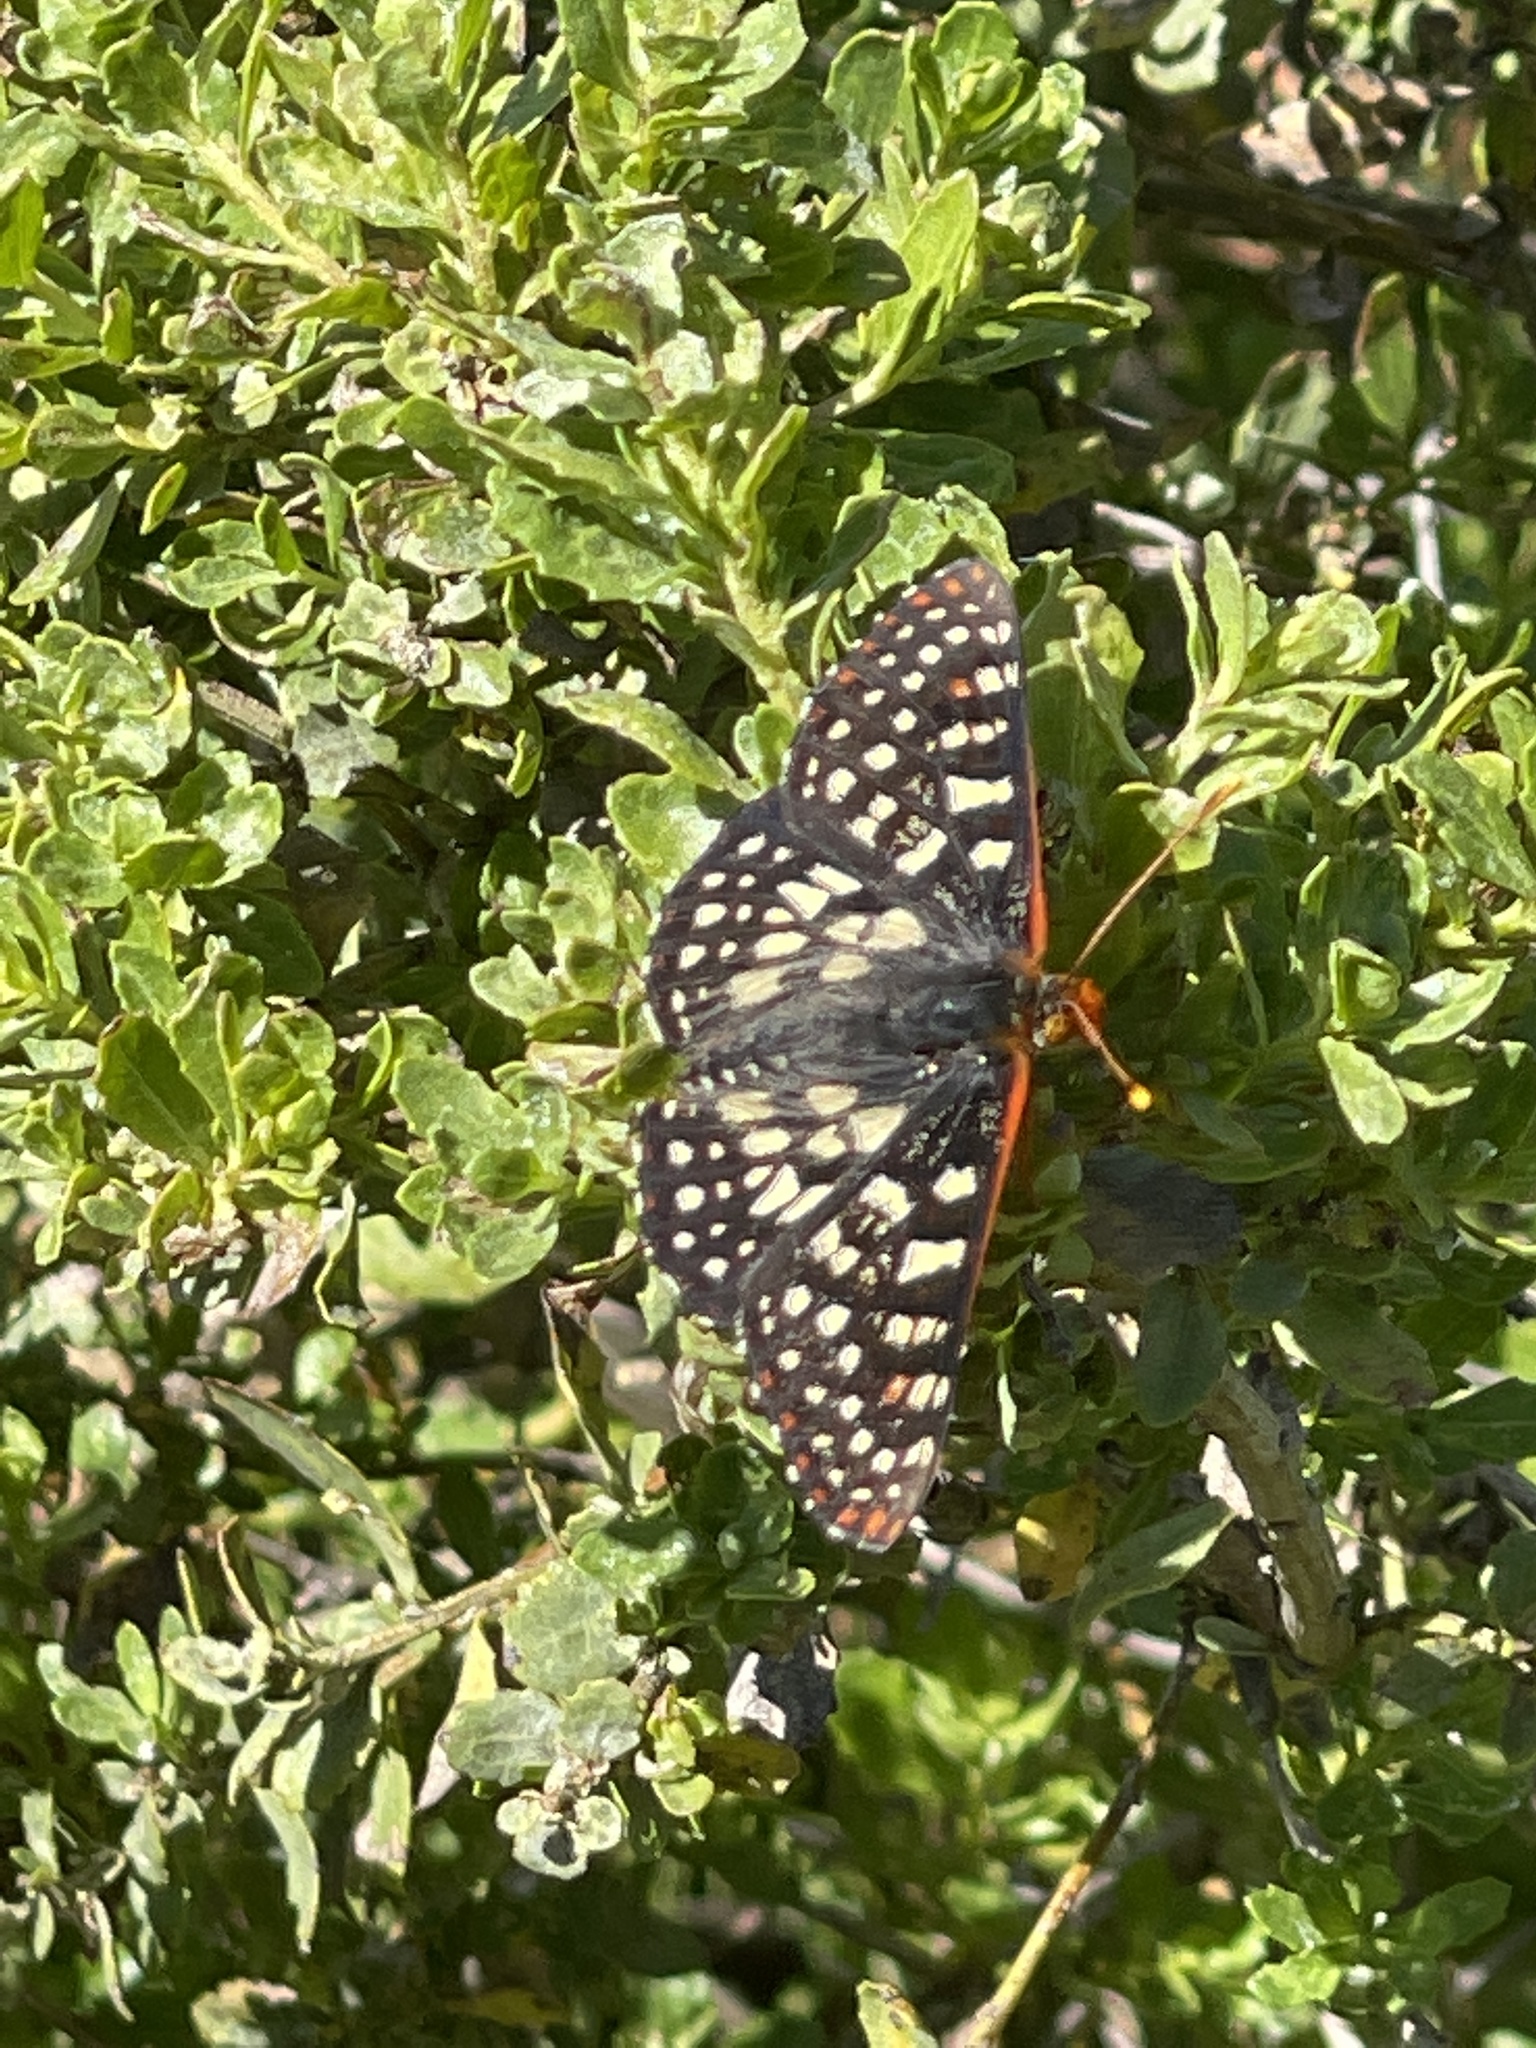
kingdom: Animalia
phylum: Arthropoda
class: Insecta
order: Lepidoptera
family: Nymphalidae
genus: Occidryas
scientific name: Occidryas chalcedona
